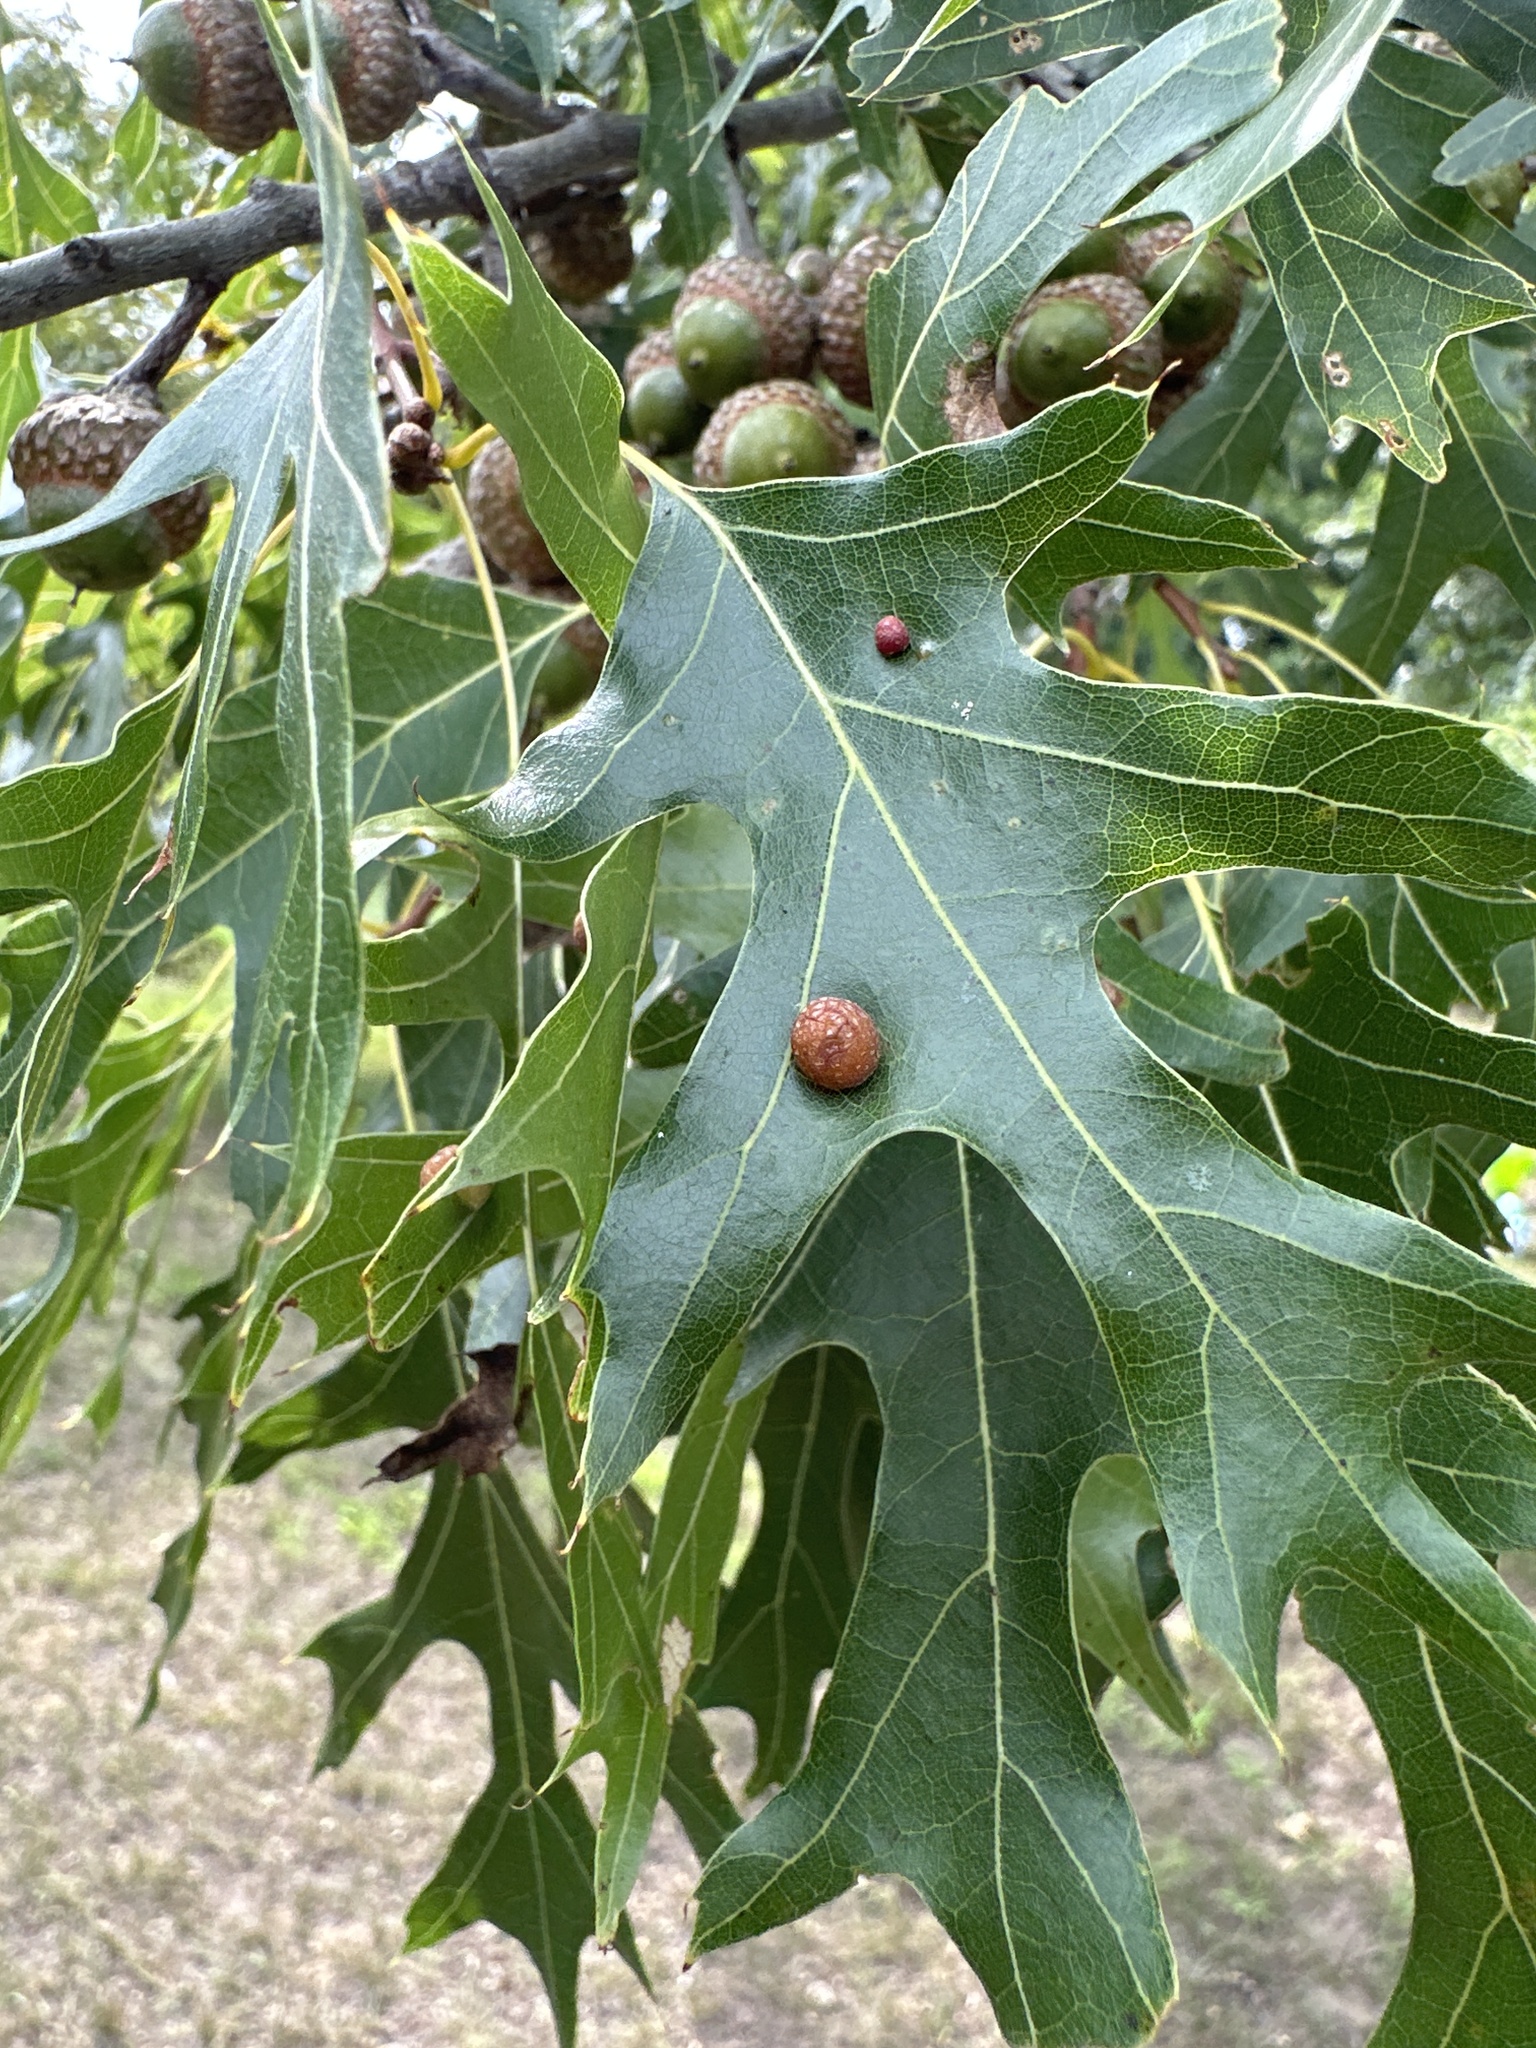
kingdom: Animalia
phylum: Arthropoda
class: Insecta
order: Diptera
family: Cecidomyiidae
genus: Polystepha
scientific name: Polystepha pilulae
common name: Oak leaf gall midge
